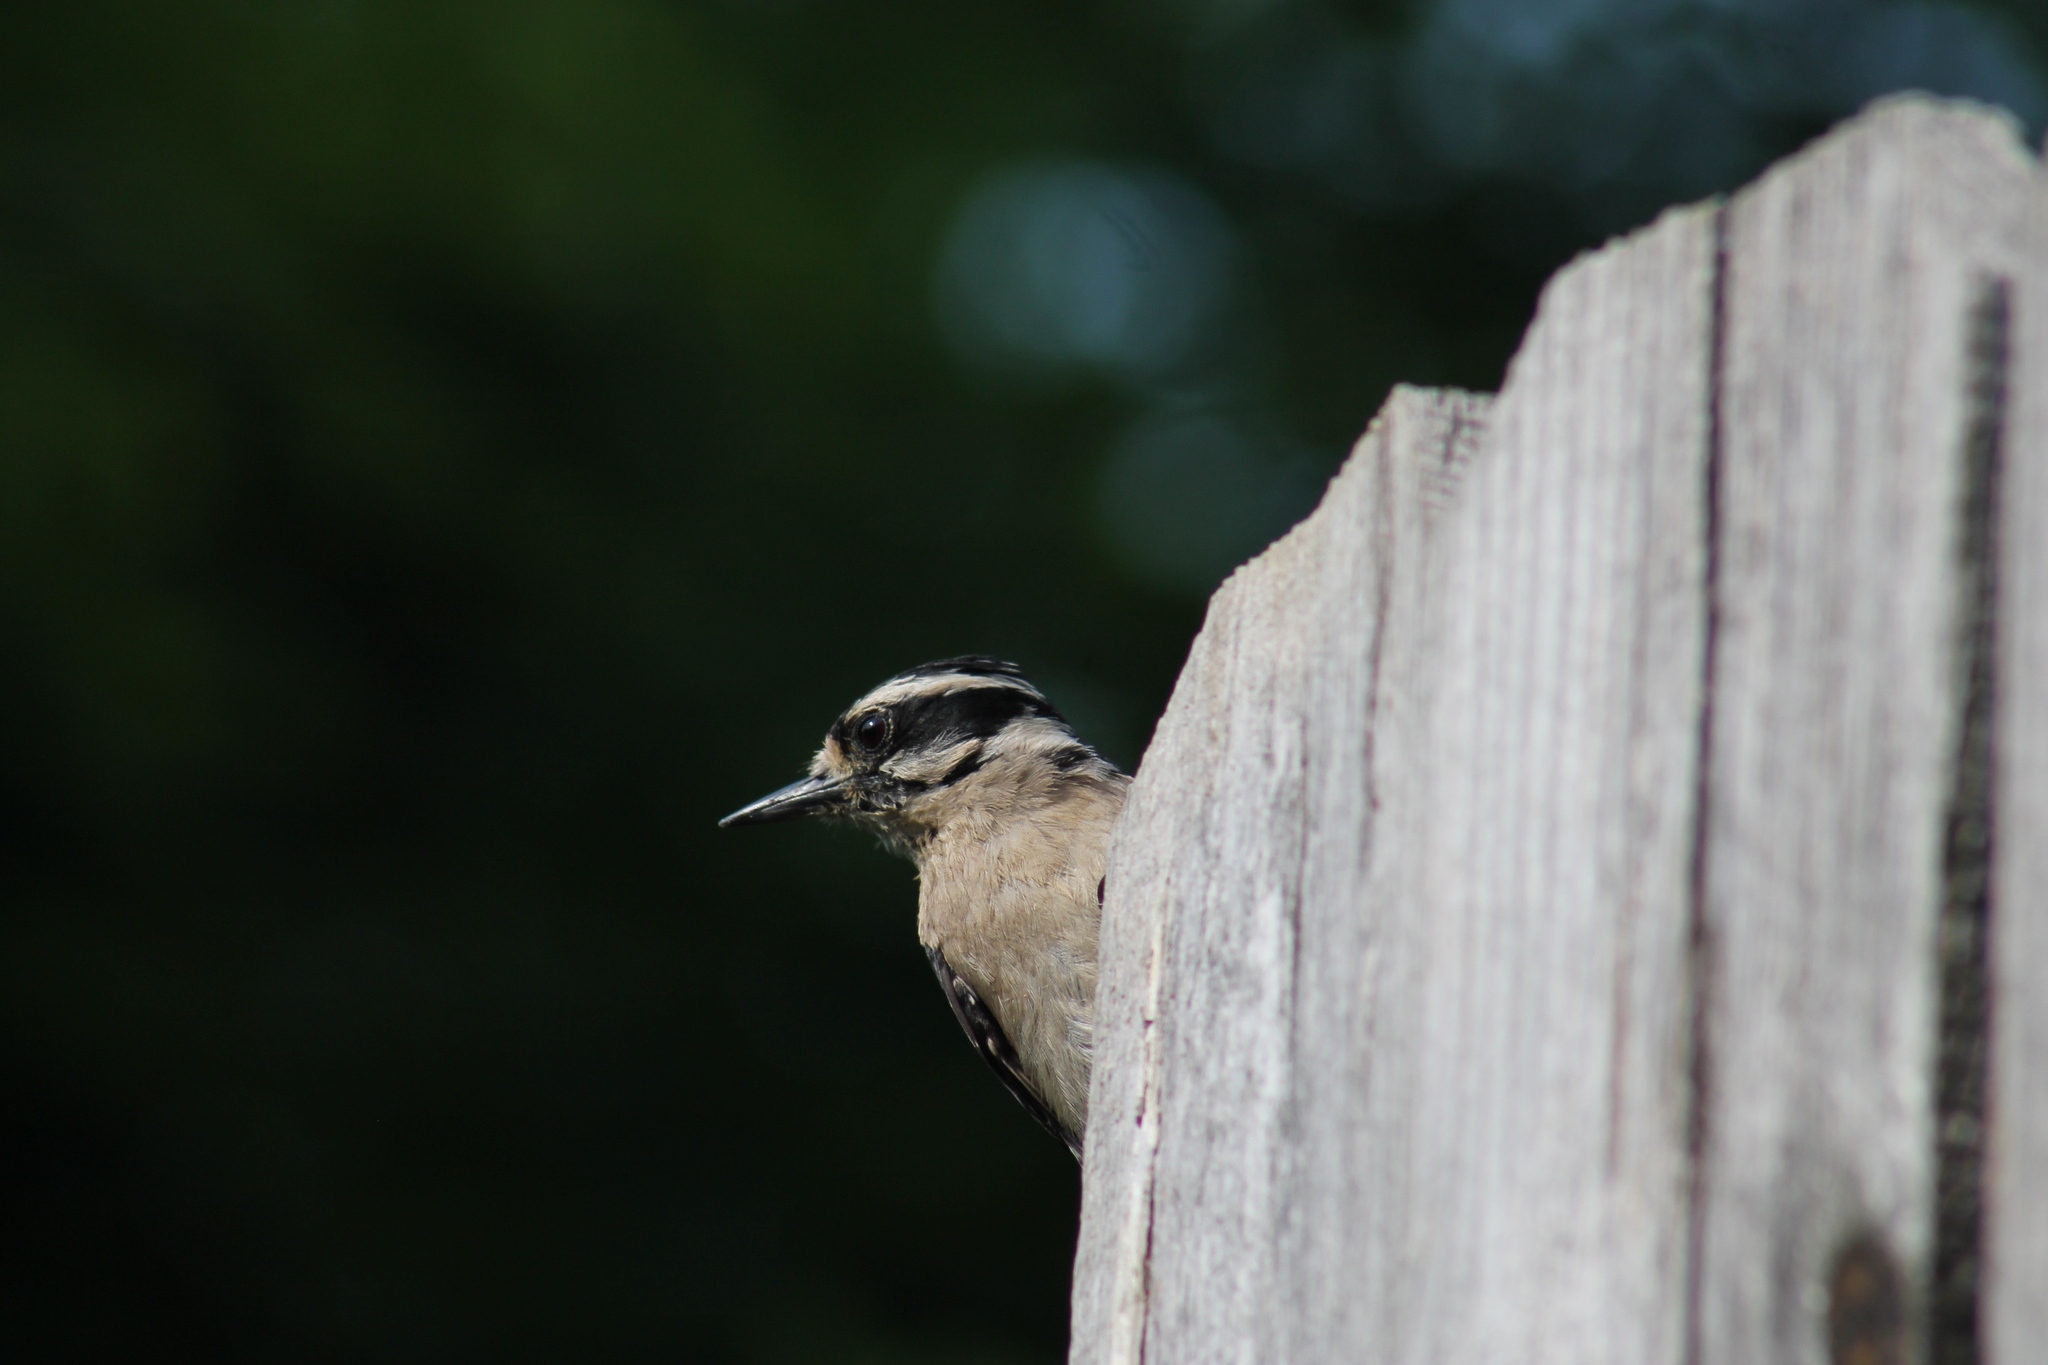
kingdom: Animalia
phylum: Chordata
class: Aves
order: Piciformes
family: Picidae
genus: Leuconotopicus
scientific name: Leuconotopicus villosus
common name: Hairy woodpecker
